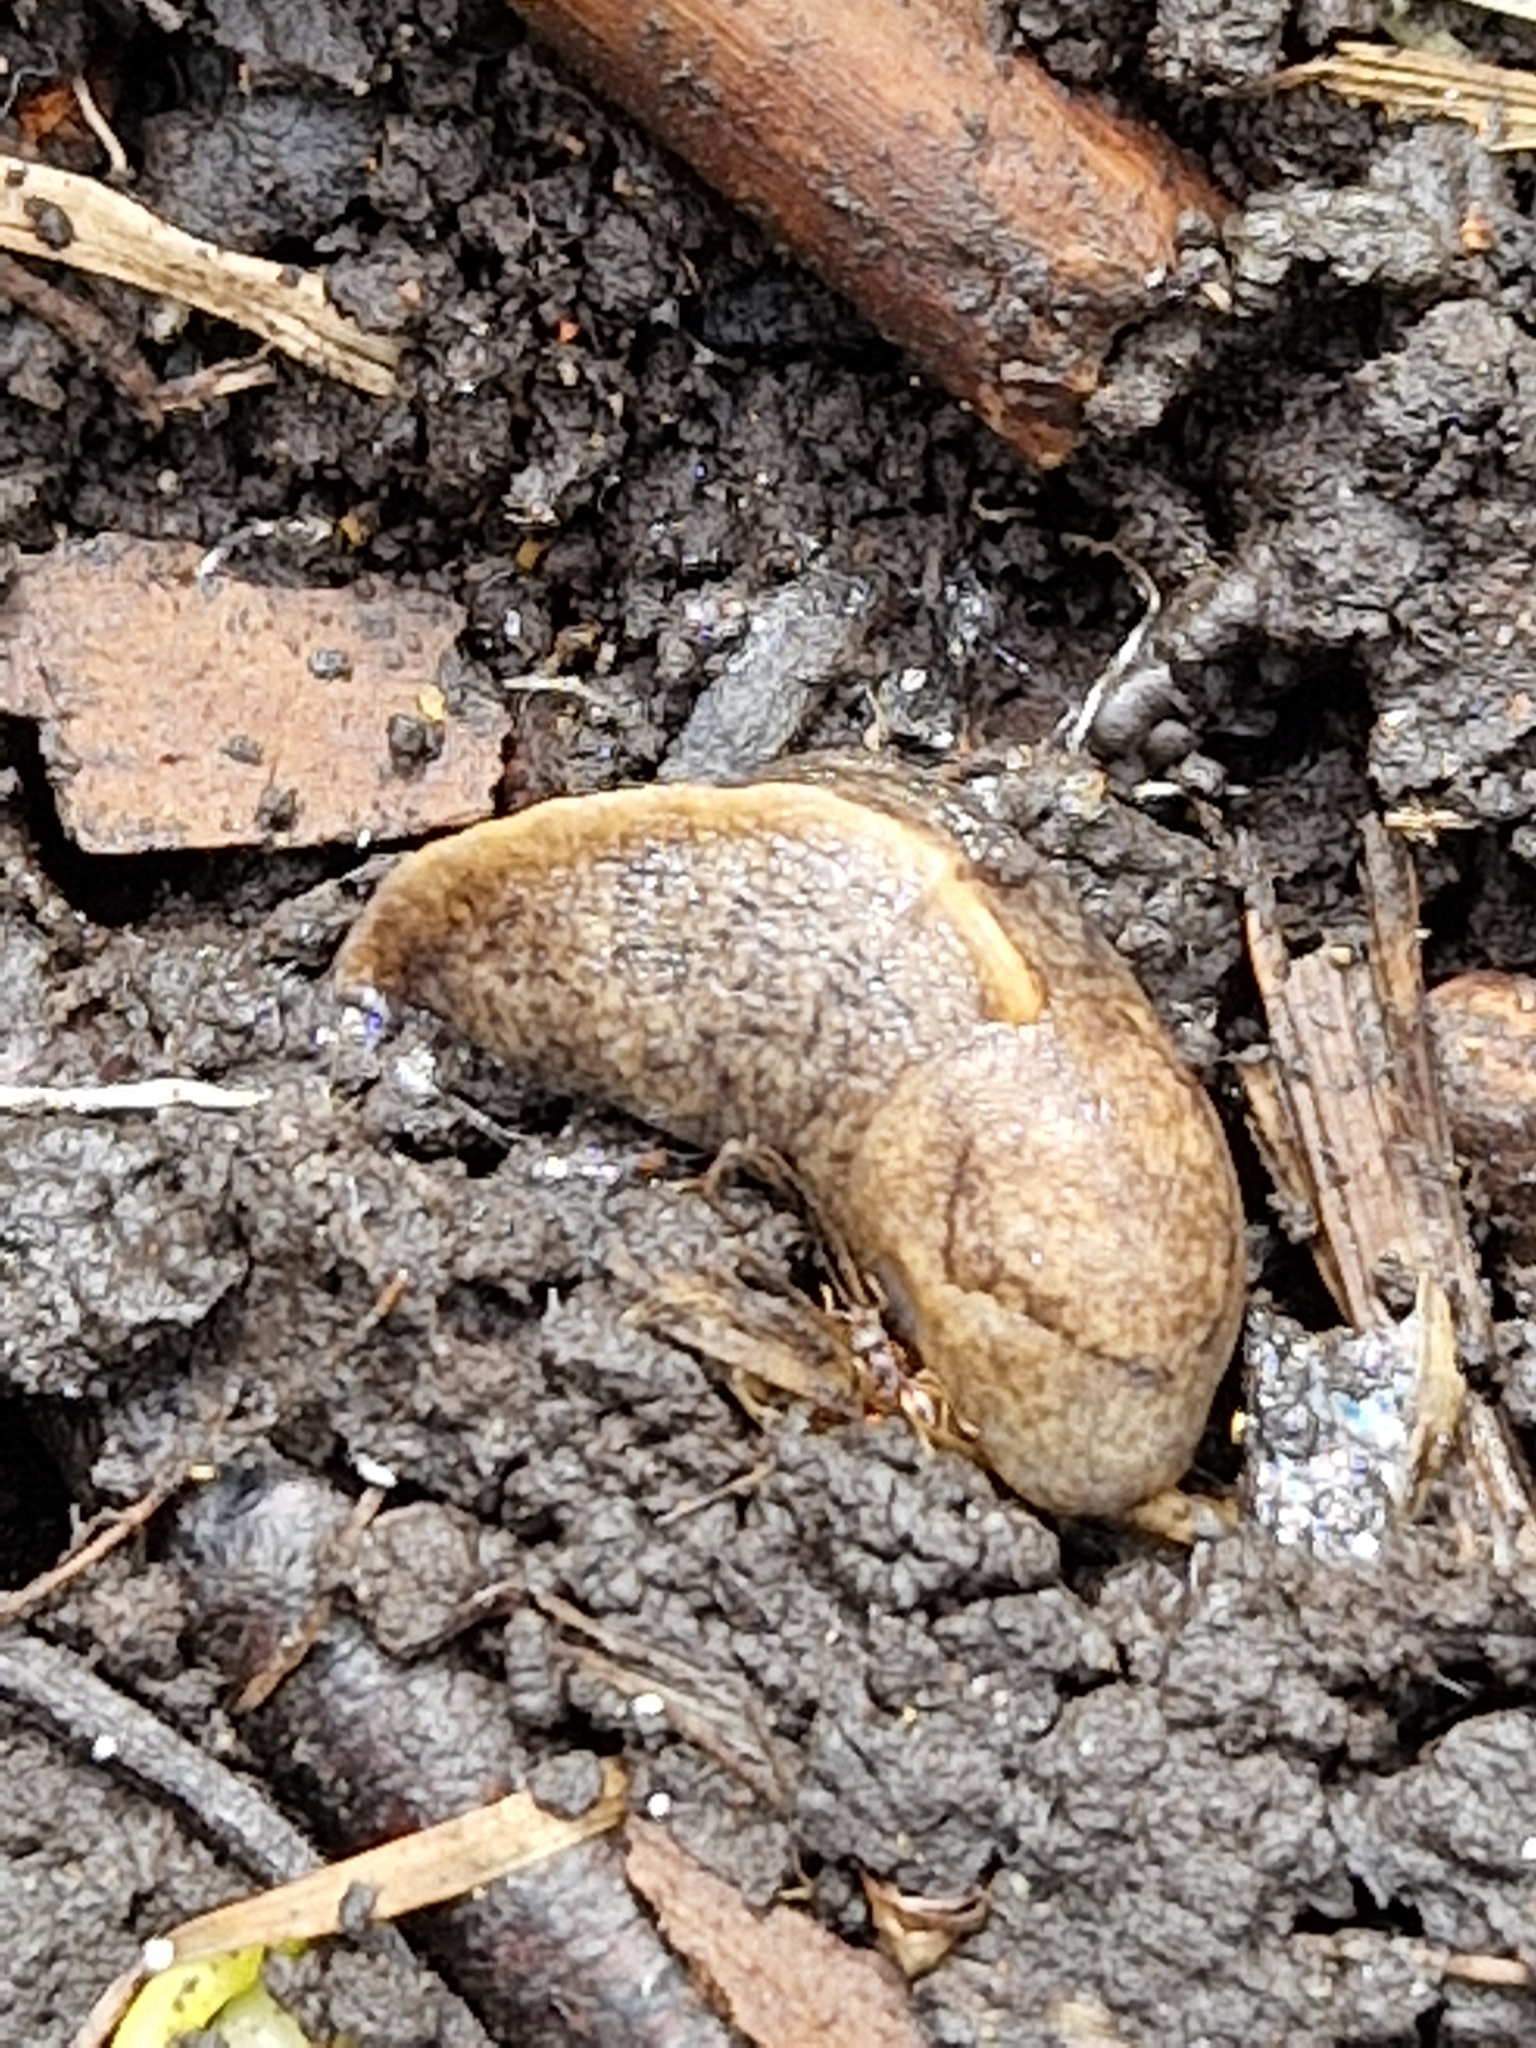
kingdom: Animalia
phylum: Mollusca
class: Gastropoda
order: Stylommatophora
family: Milacidae
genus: Tandonia
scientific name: Tandonia sowerbyi
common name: Keeled slug
